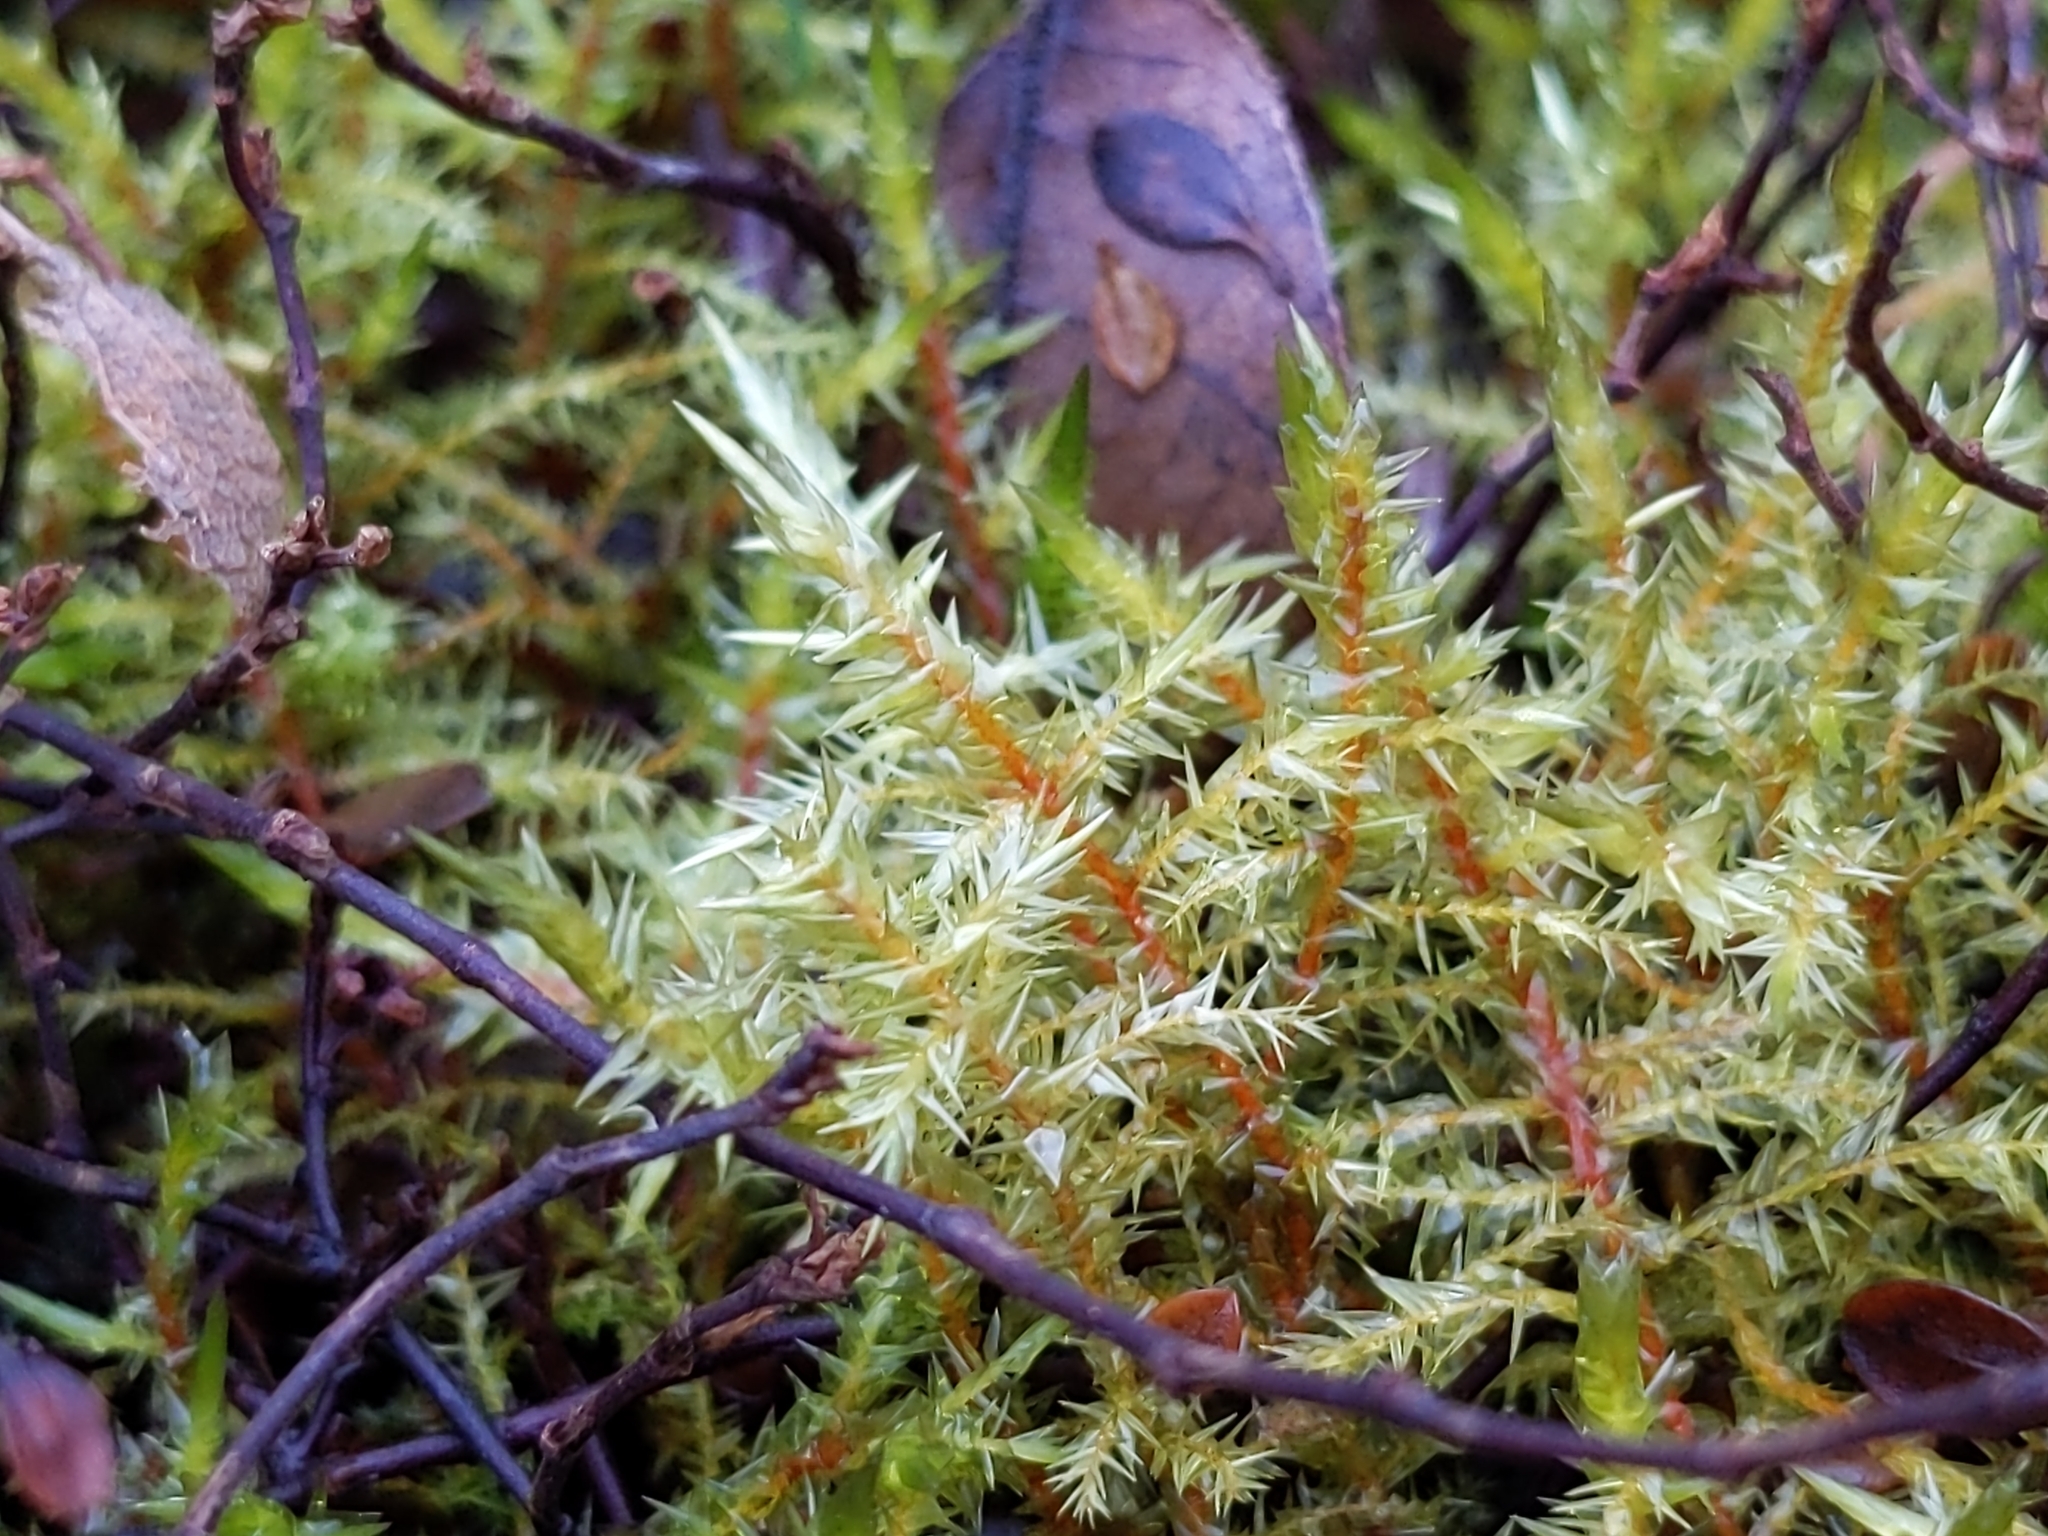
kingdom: Plantae
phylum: Bryophyta
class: Bryopsida
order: Hypnales
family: Pylaisiaceae
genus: Calliergonella
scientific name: Calliergonella cuspidata
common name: Common large wetland moss
